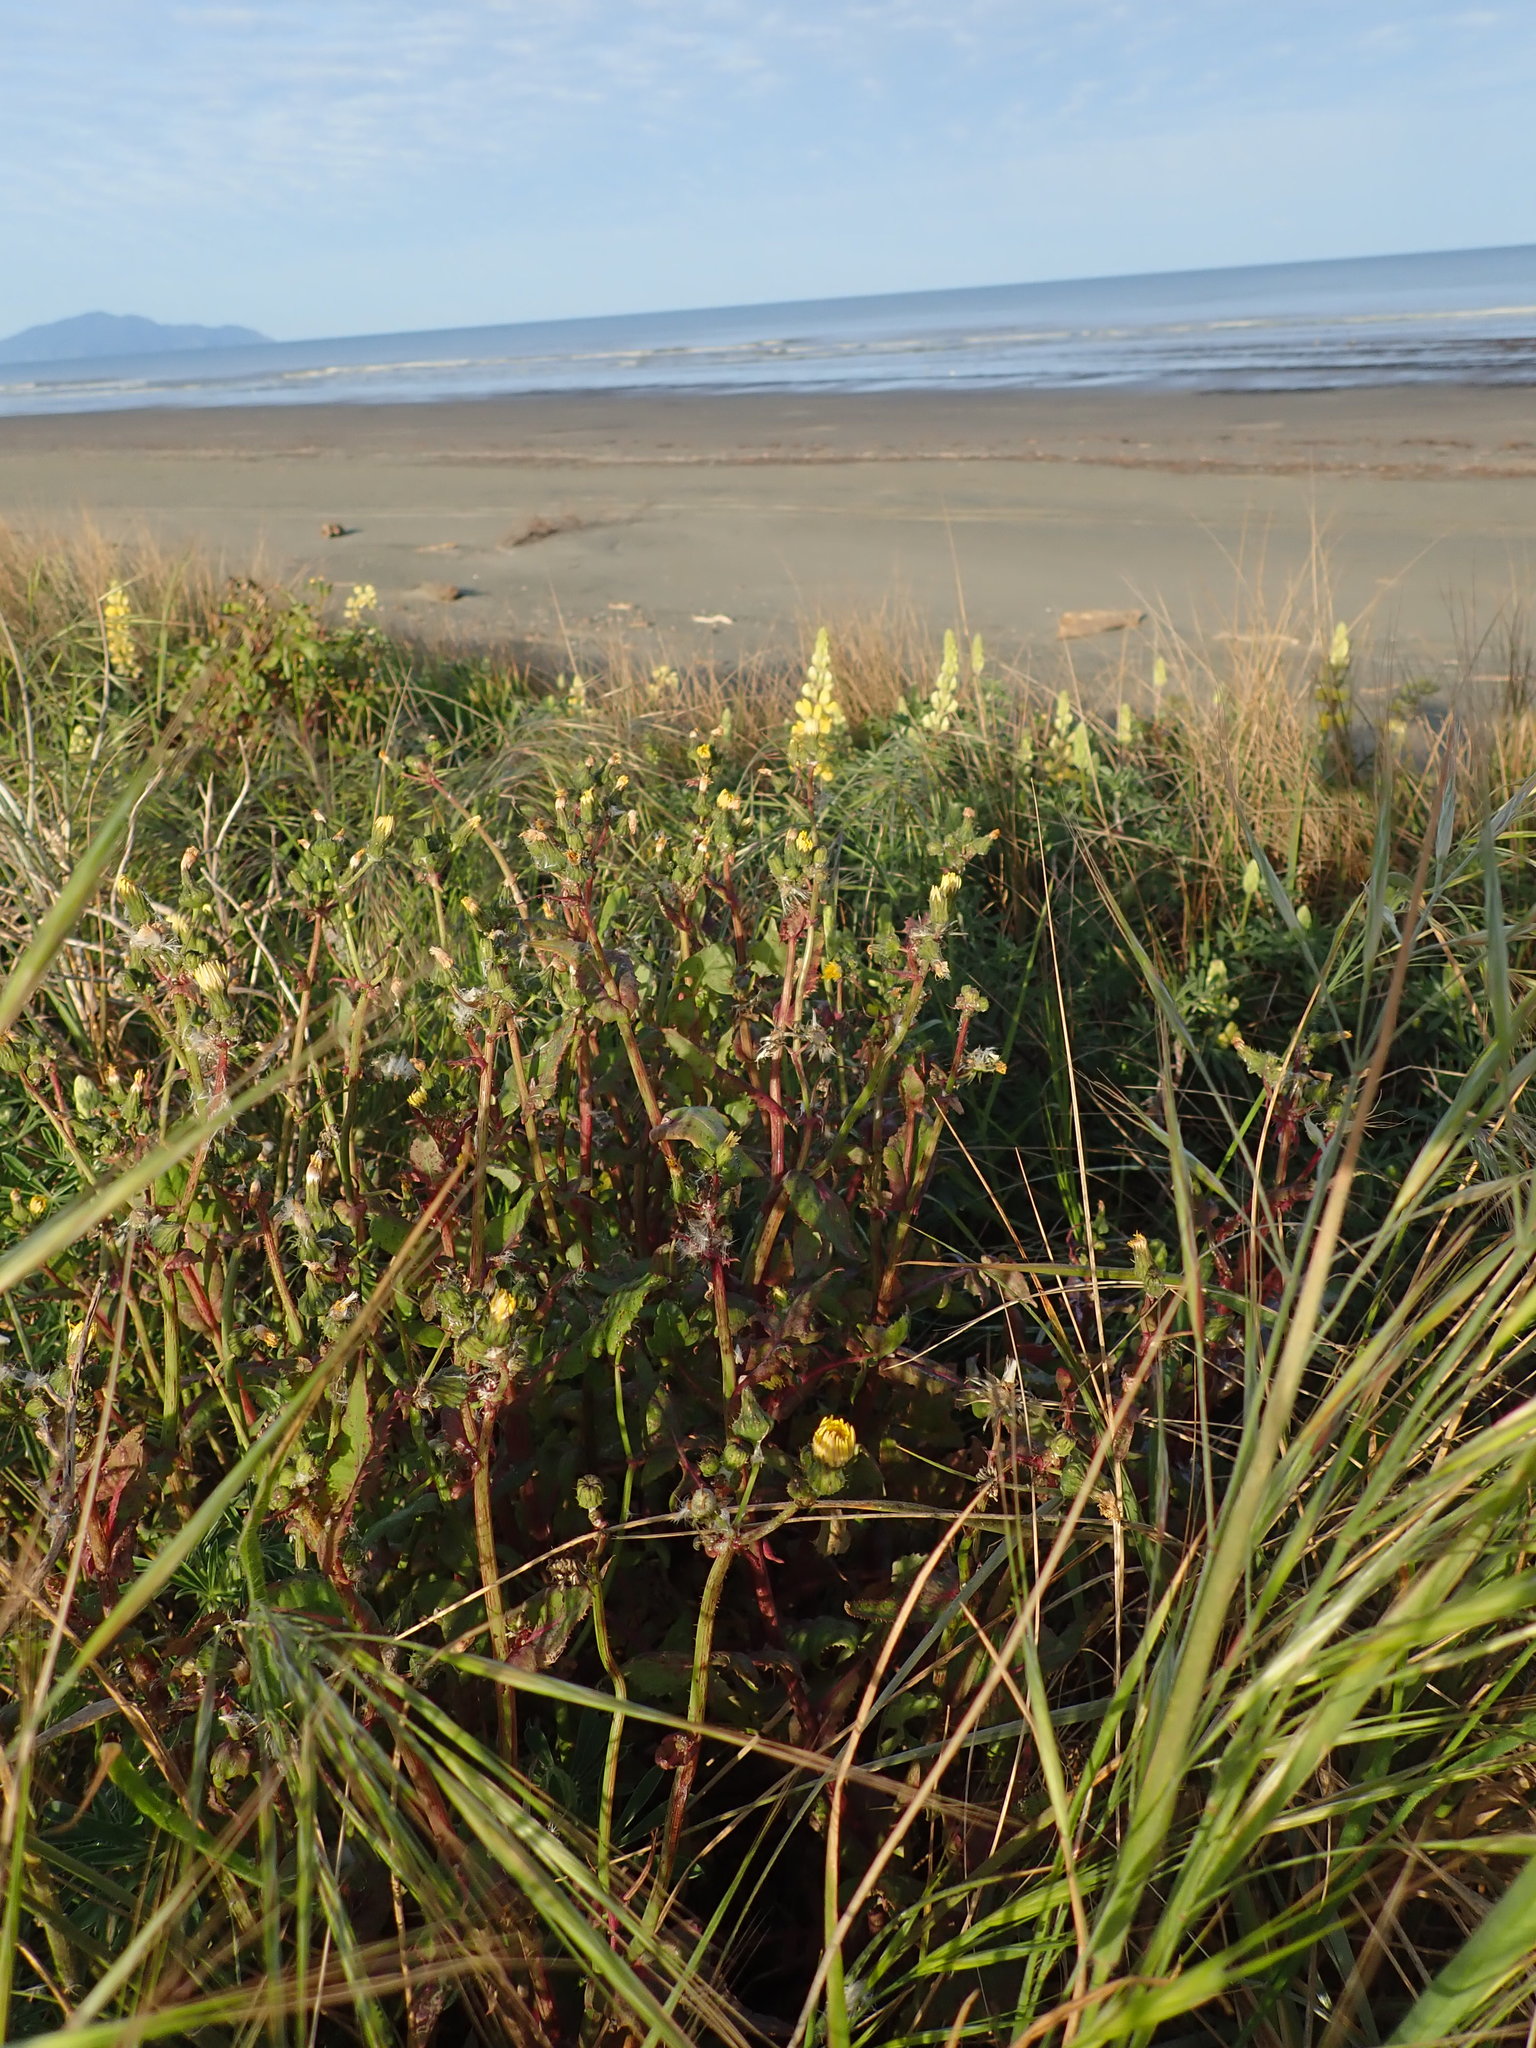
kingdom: Plantae
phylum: Tracheophyta
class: Magnoliopsida
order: Asterales
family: Asteraceae
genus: Sonchus
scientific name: Sonchus oleraceus
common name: Common sowthistle
